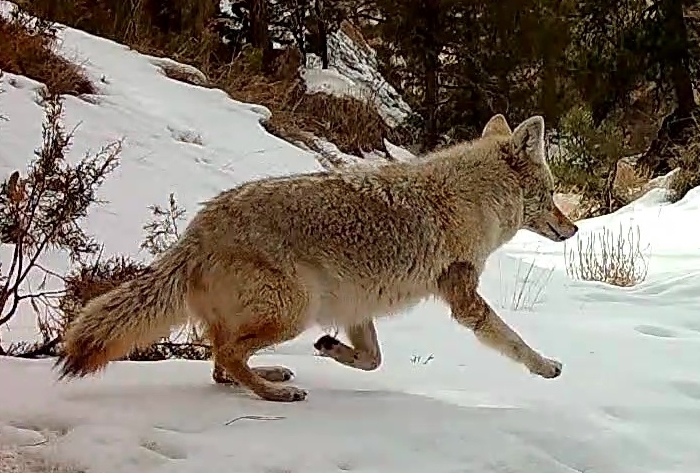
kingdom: Animalia
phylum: Chordata
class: Mammalia
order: Carnivora
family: Canidae
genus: Canis
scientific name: Canis latrans
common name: Coyote
